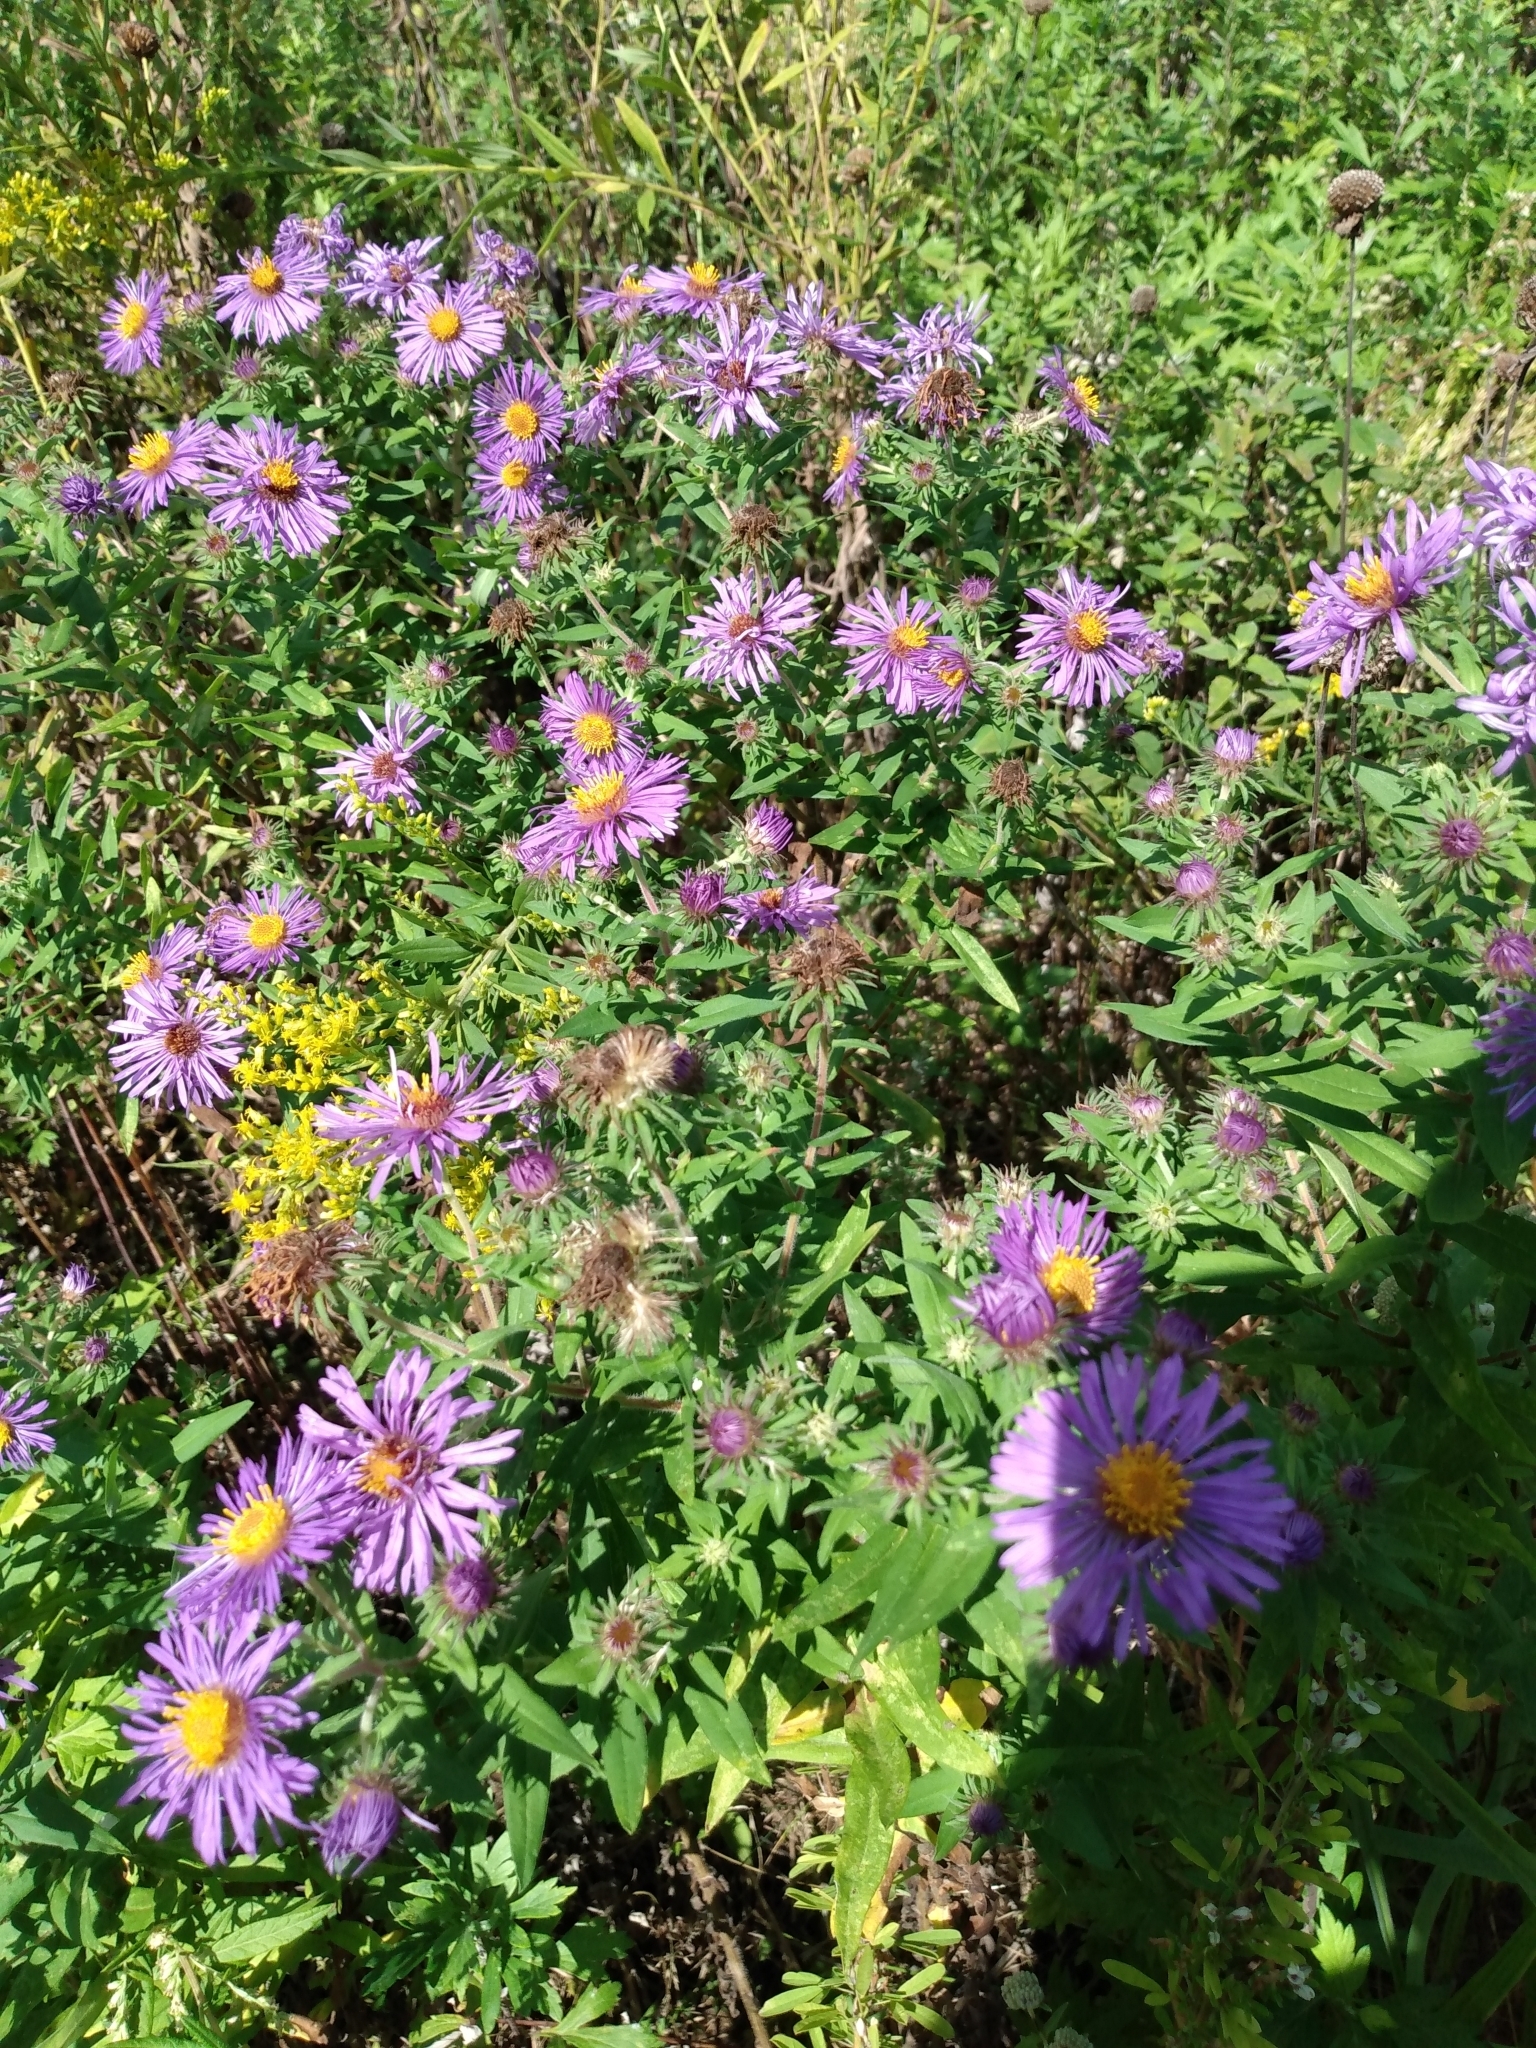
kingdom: Plantae
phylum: Tracheophyta
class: Magnoliopsida
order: Asterales
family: Asteraceae
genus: Symphyotrichum
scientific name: Symphyotrichum novae-angliae
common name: Michaelmas daisy
